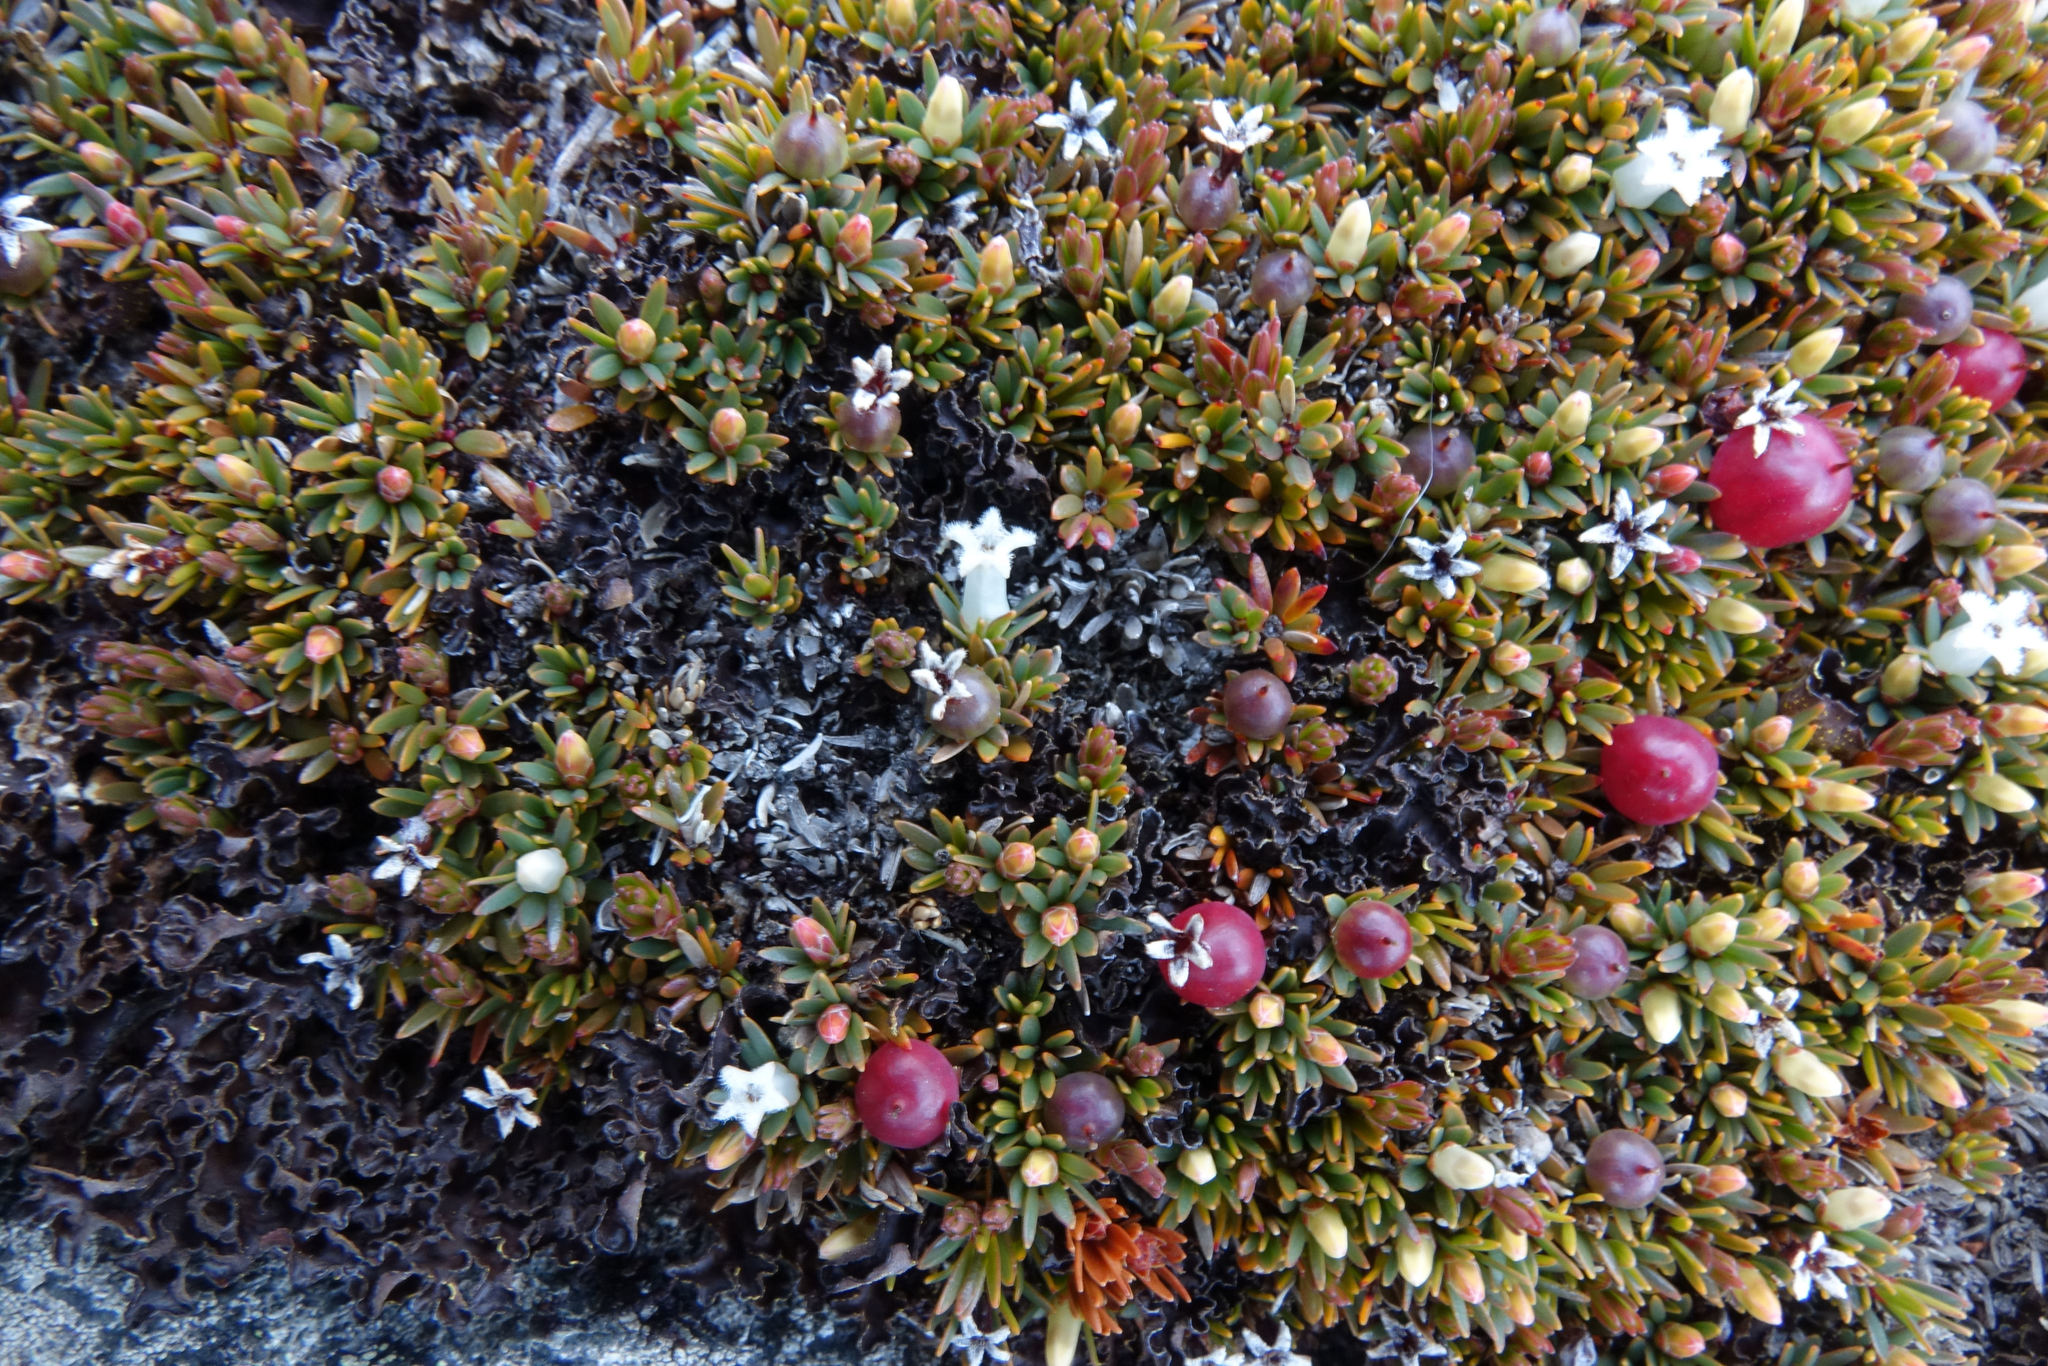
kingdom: Plantae
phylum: Tracheophyta
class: Magnoliopsida
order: Ericales
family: Ericaceae
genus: Pentachondra
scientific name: Pentachondra pumila
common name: Carpet-heath
